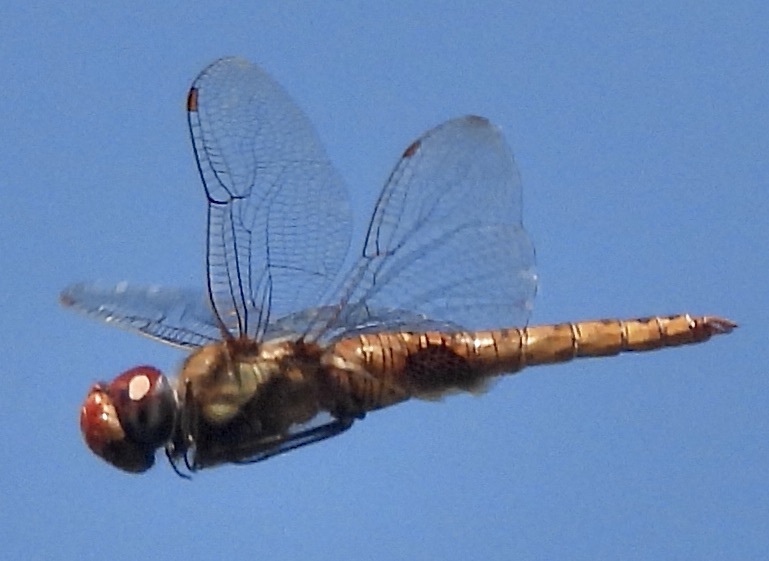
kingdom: Animalia
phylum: Arthropoda
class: Insecta
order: Odonata
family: Libellulidae
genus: Pantala
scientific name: Pantala hymenaea
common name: Spot-winged glider
